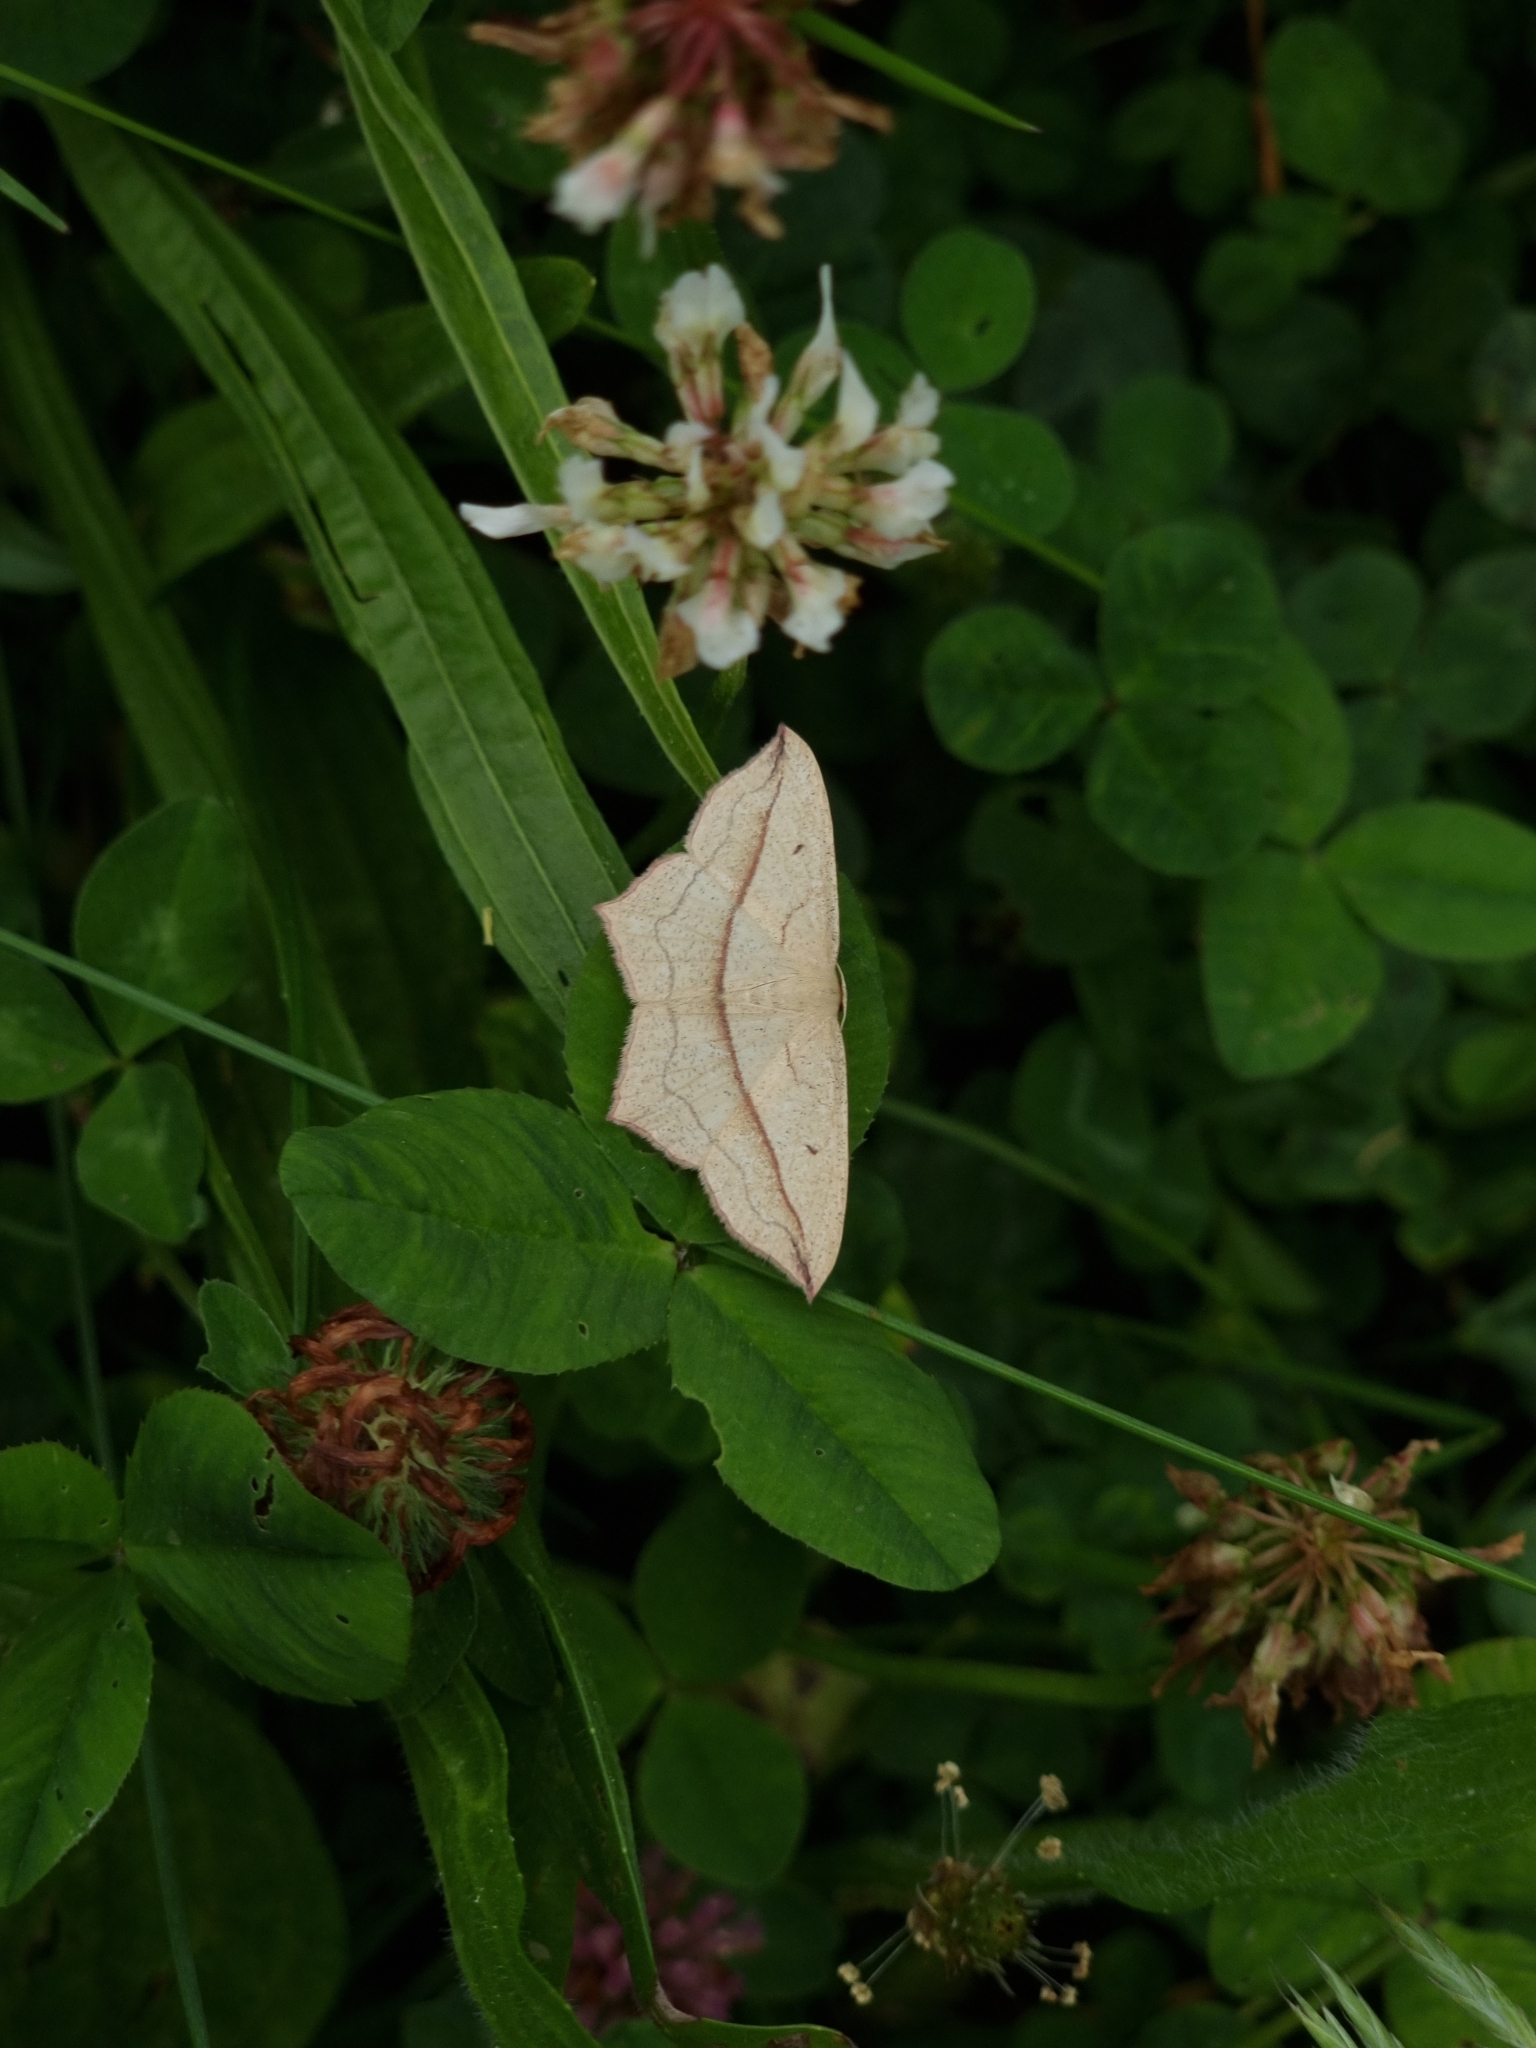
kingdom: Animalia
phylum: Arthropoda
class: Insecta
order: Lepidoptera
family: Geometridae
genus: Timandra
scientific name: Timandra comae
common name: Blood-vein
